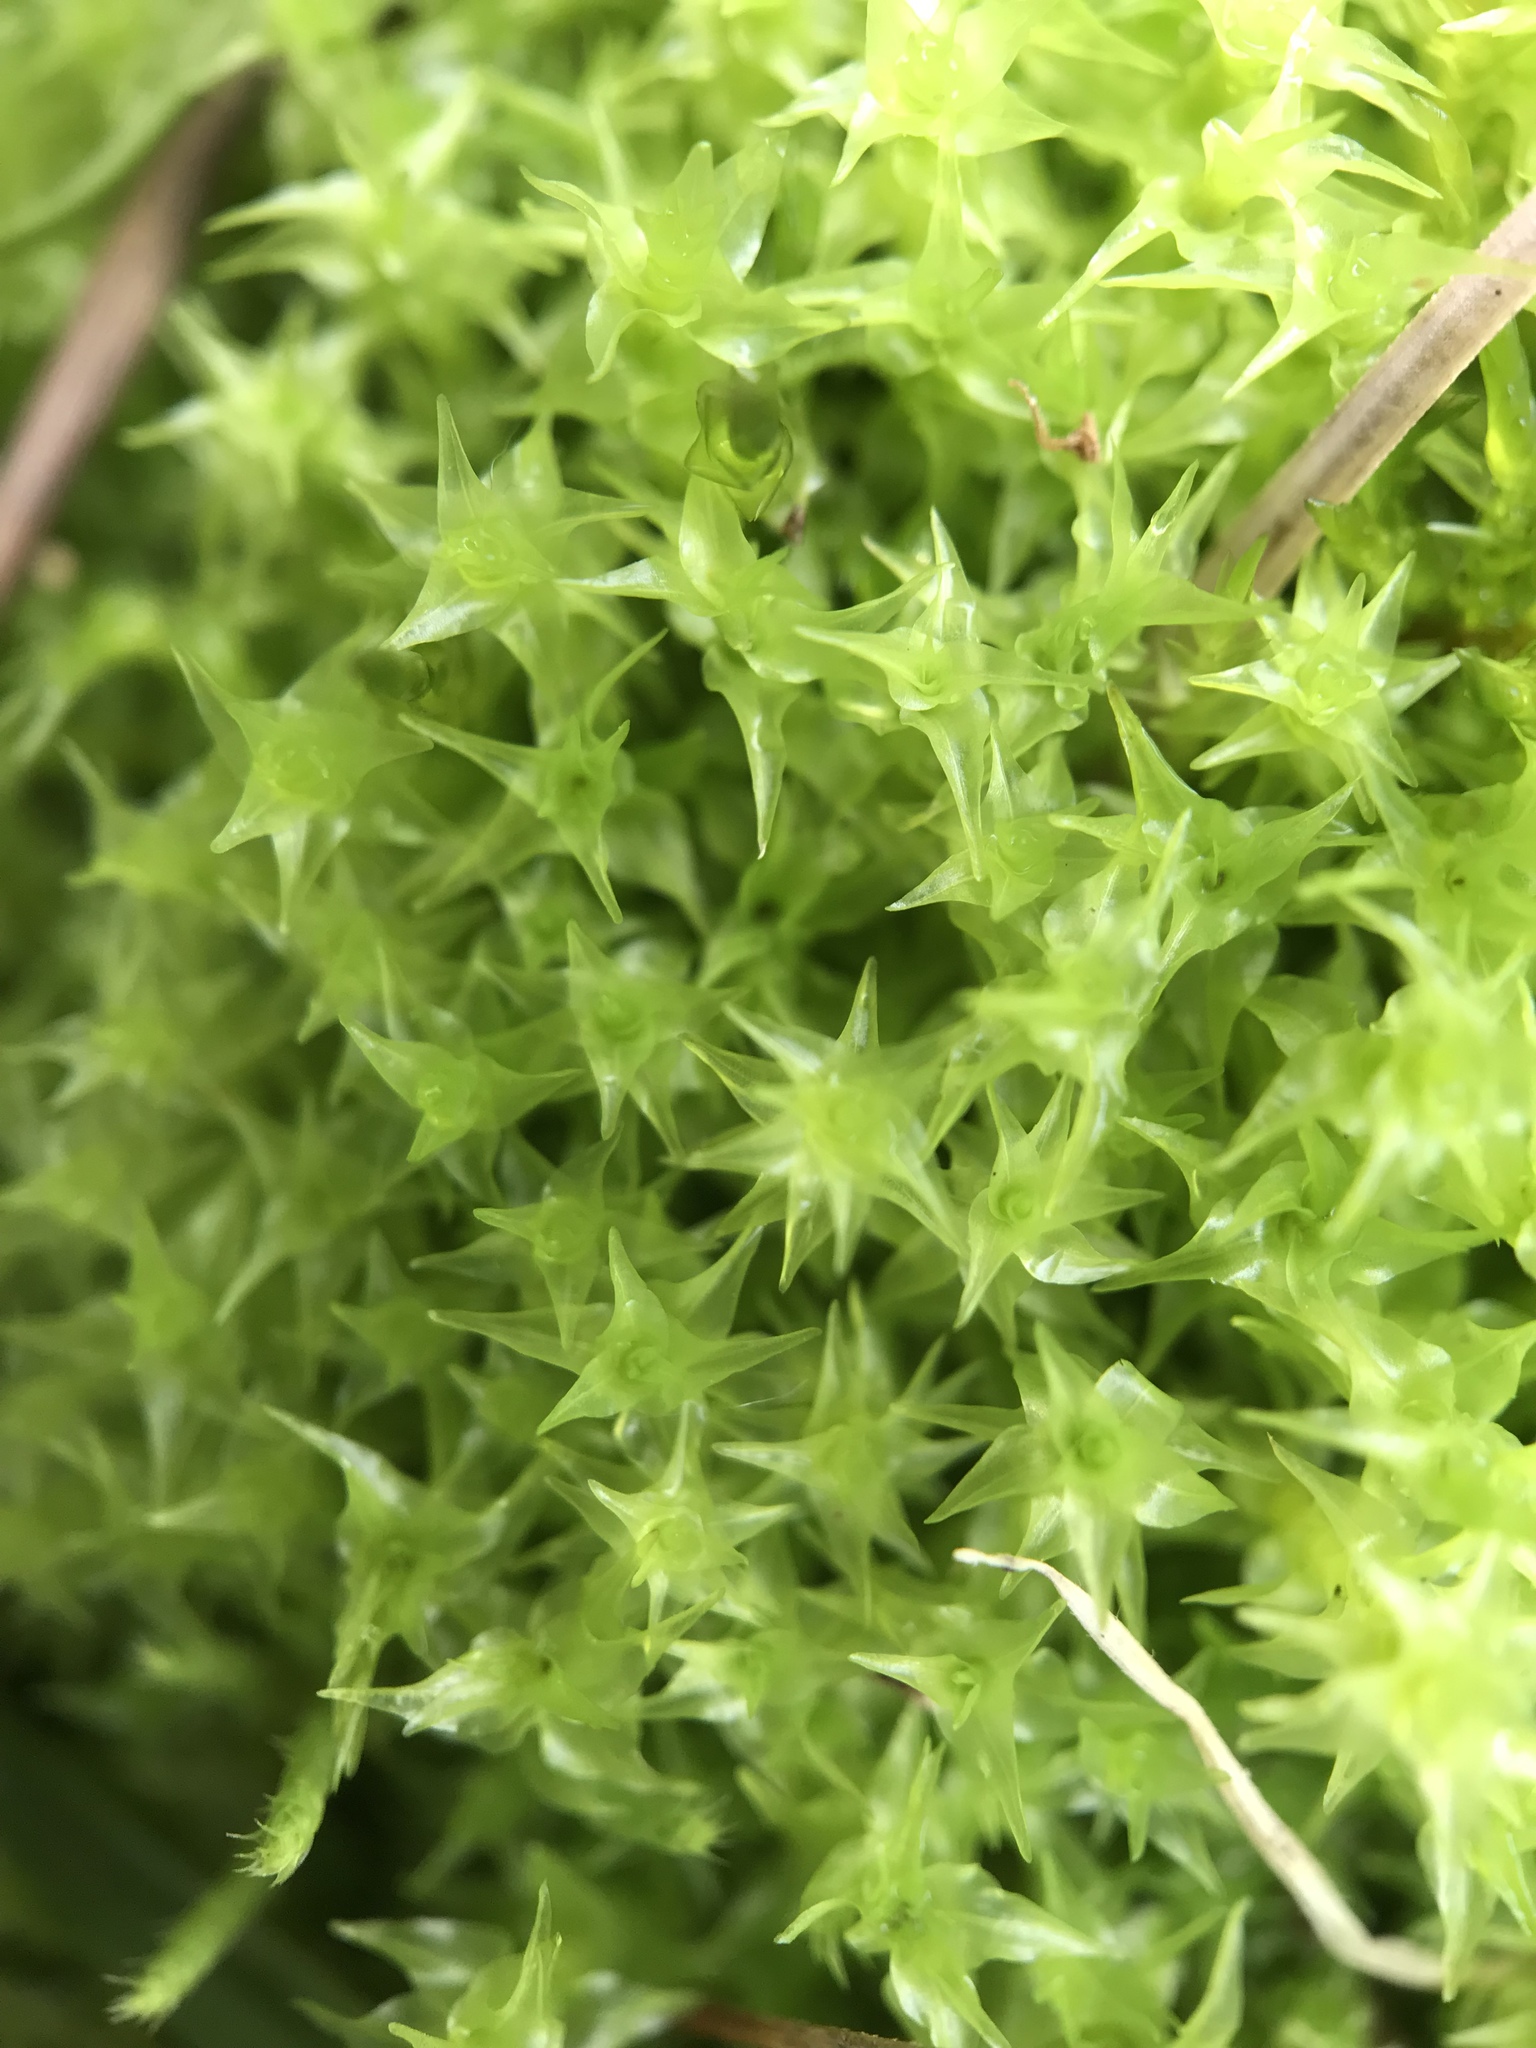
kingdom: Plantae
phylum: Bryophyta
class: Bryopsida
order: Dicranales
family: Aongstroemiaceae
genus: Diobelonella
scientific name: Diobelonella palustris
